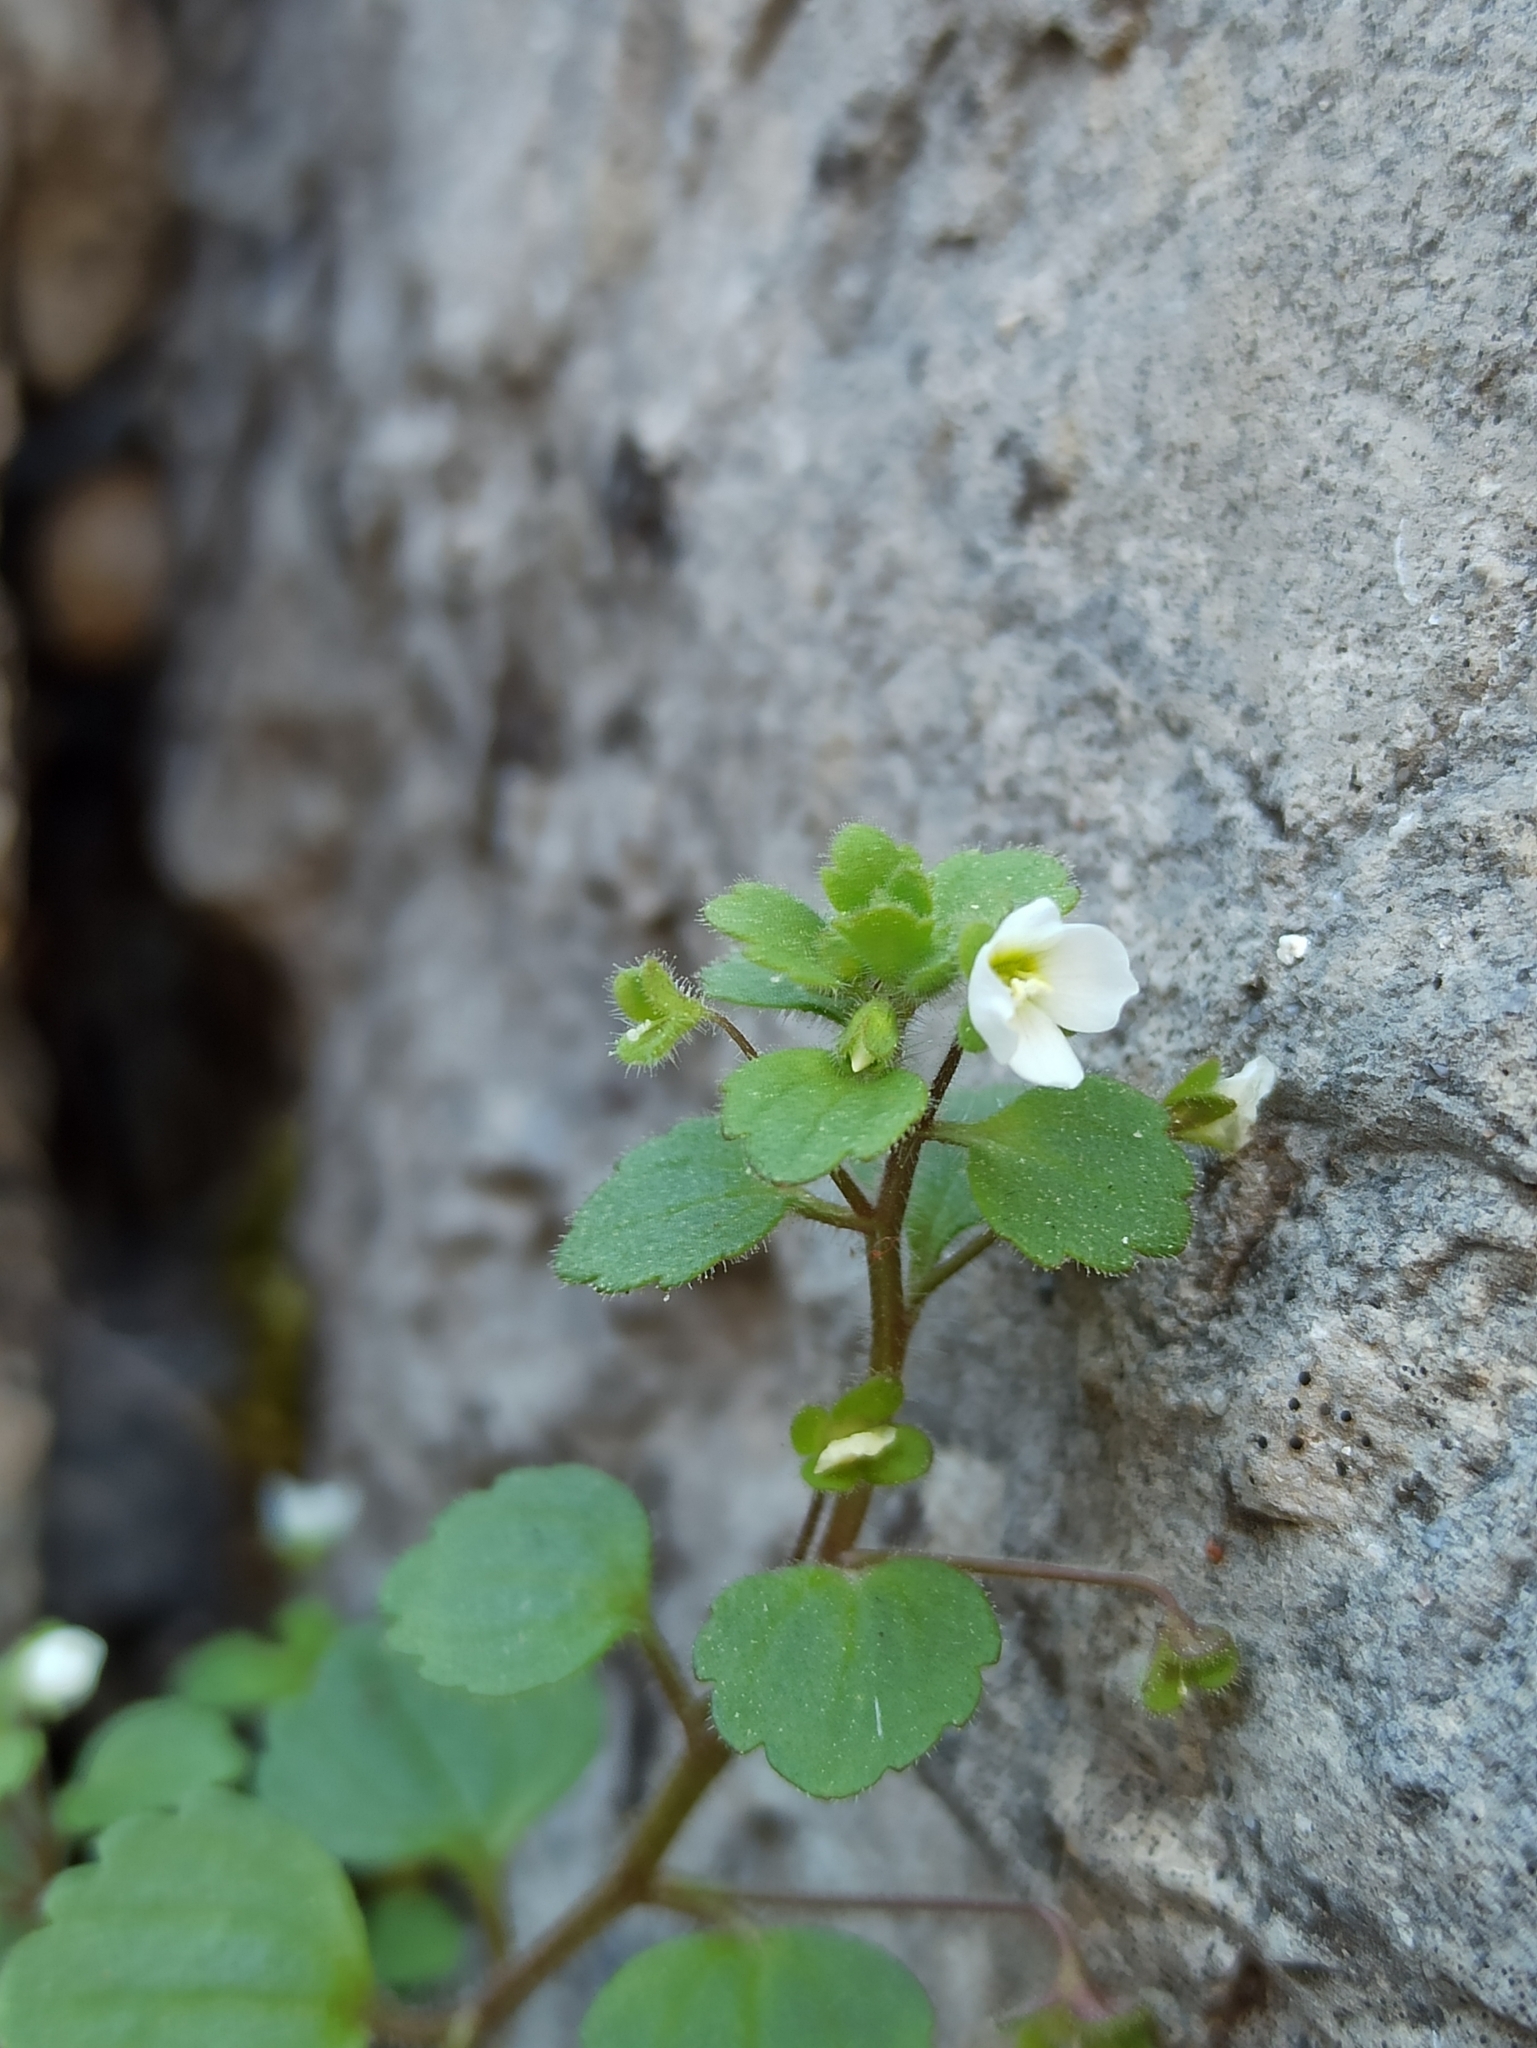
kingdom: Plantae
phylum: Tracheophyta
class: Magnoliopsida
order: Lamiales
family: Plantaginaceae
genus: Veronica
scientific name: Veronica cymbalaria
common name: Pale speedwell
